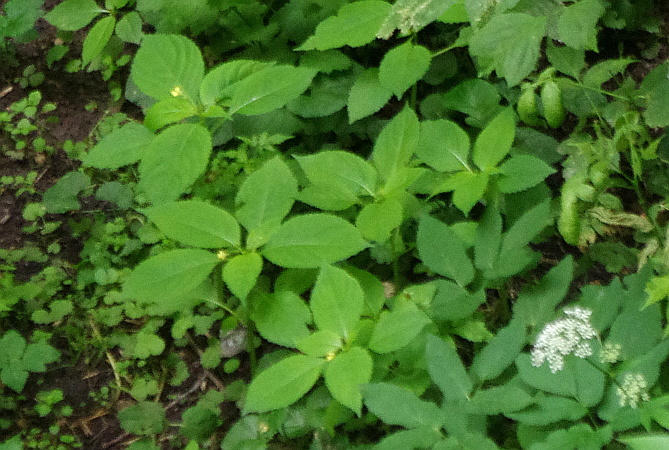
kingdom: Plantae
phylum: Tracheophyta
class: Magnoliopsida
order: Ericales
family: Balsaminaceae
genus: Impatiens
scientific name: Impatiens parviflora
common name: Small balsam
